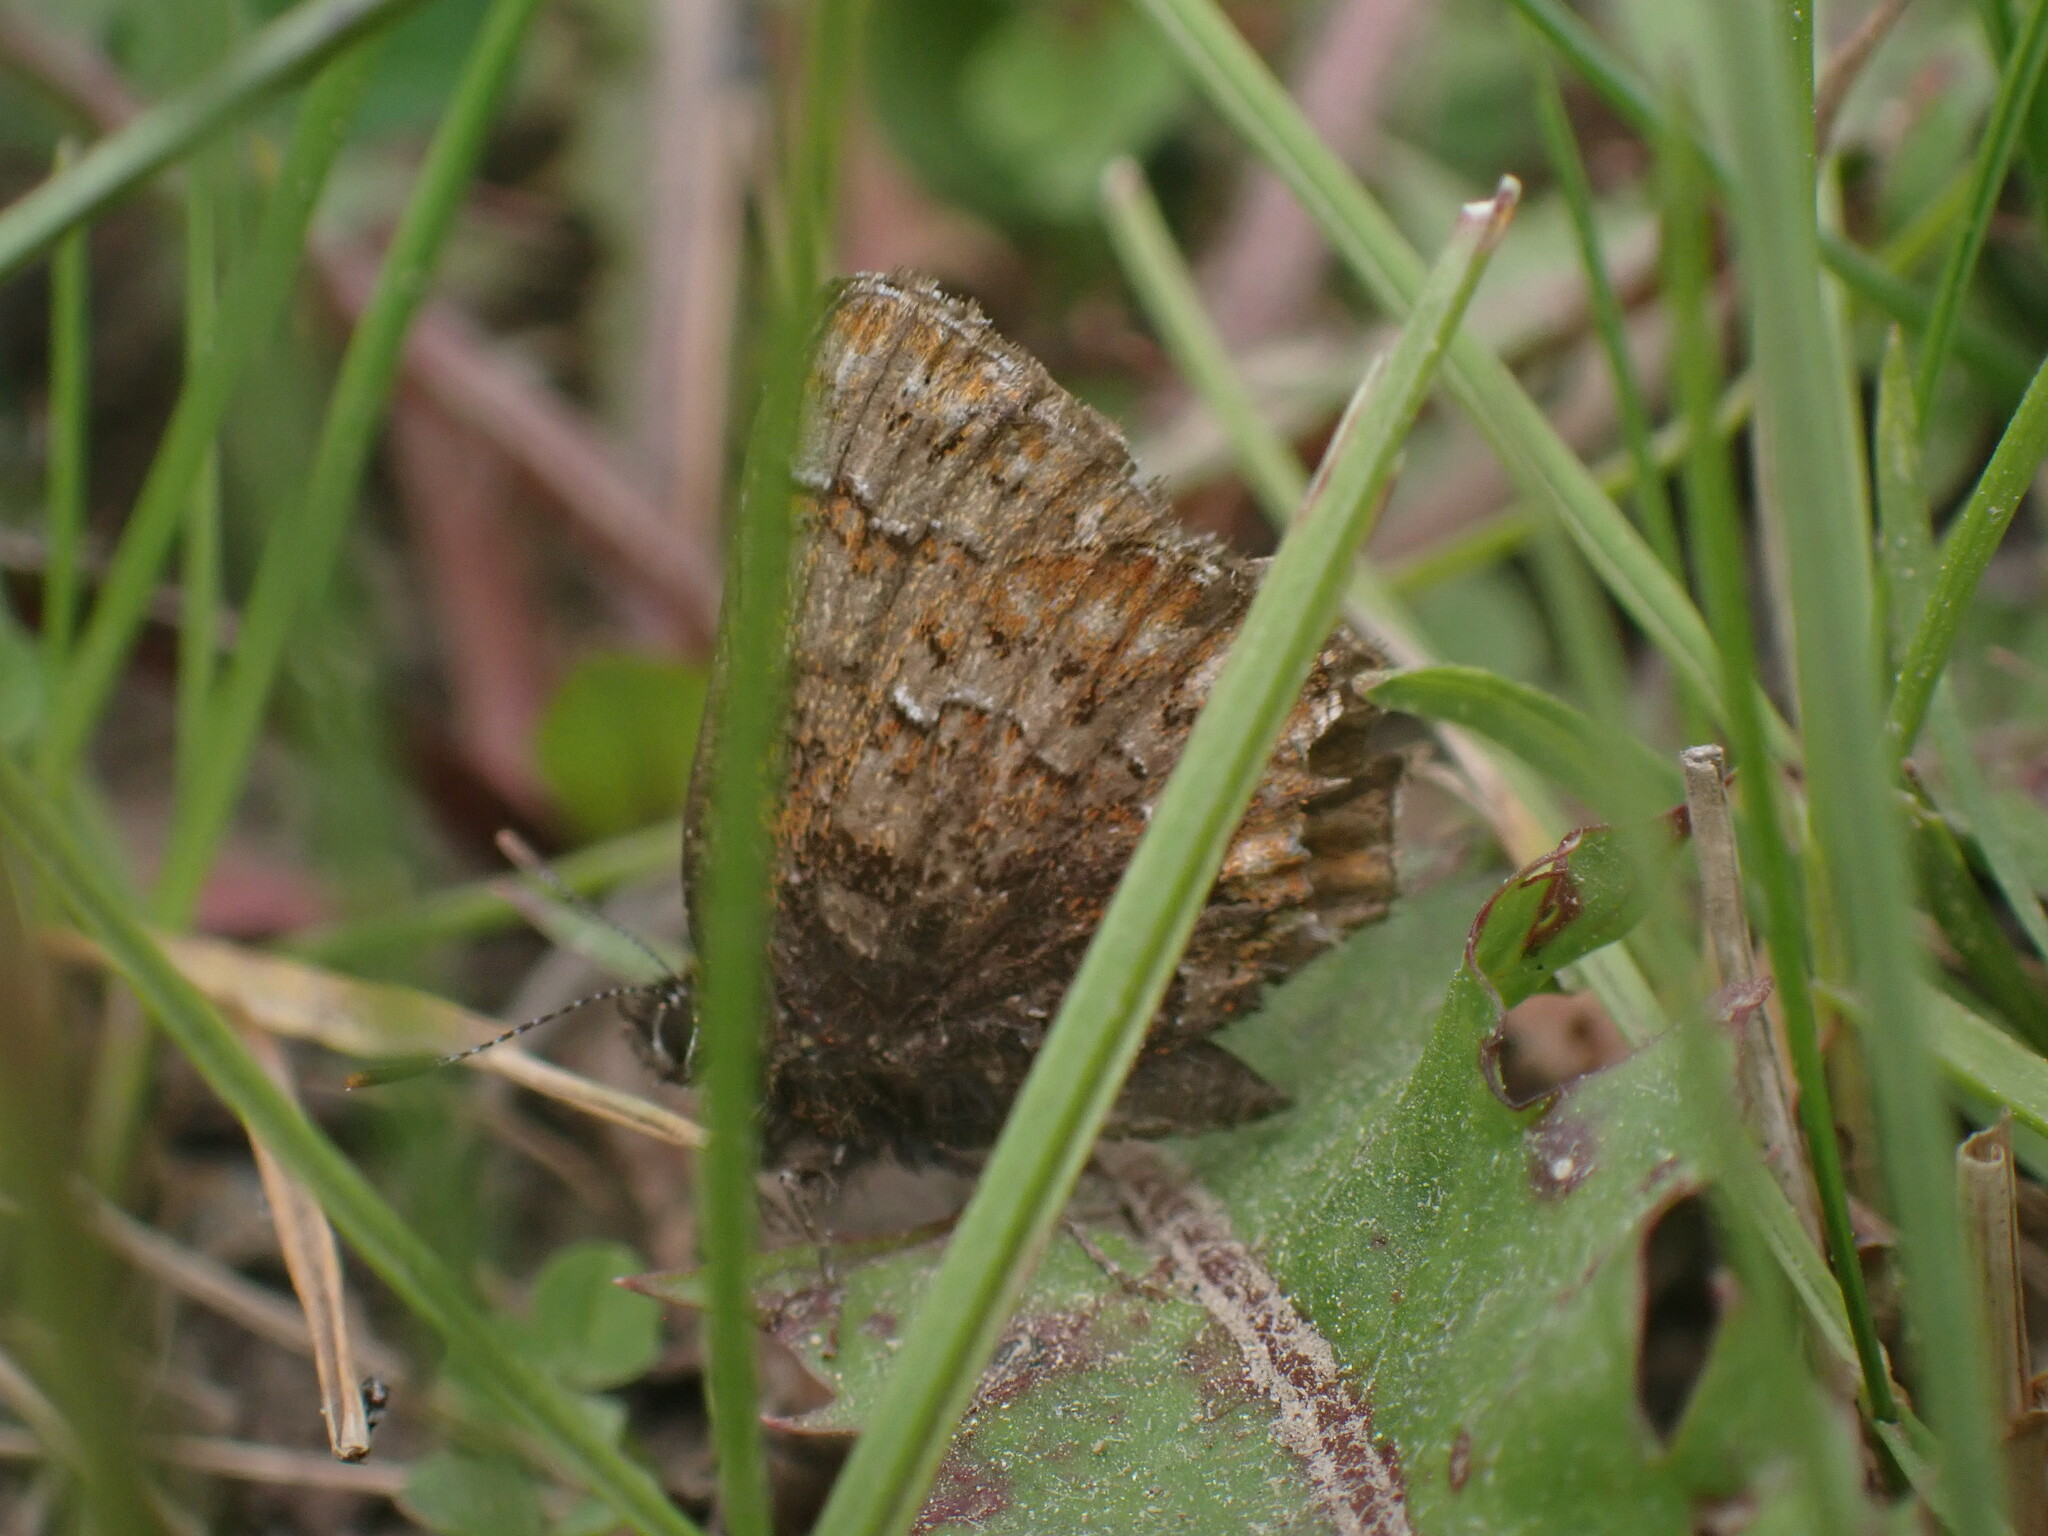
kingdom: Animalia
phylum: Arthropoda
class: Insecta
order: Lepidoptera
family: Lycaenidae
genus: Incisalia
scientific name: Incisalia eryphon
